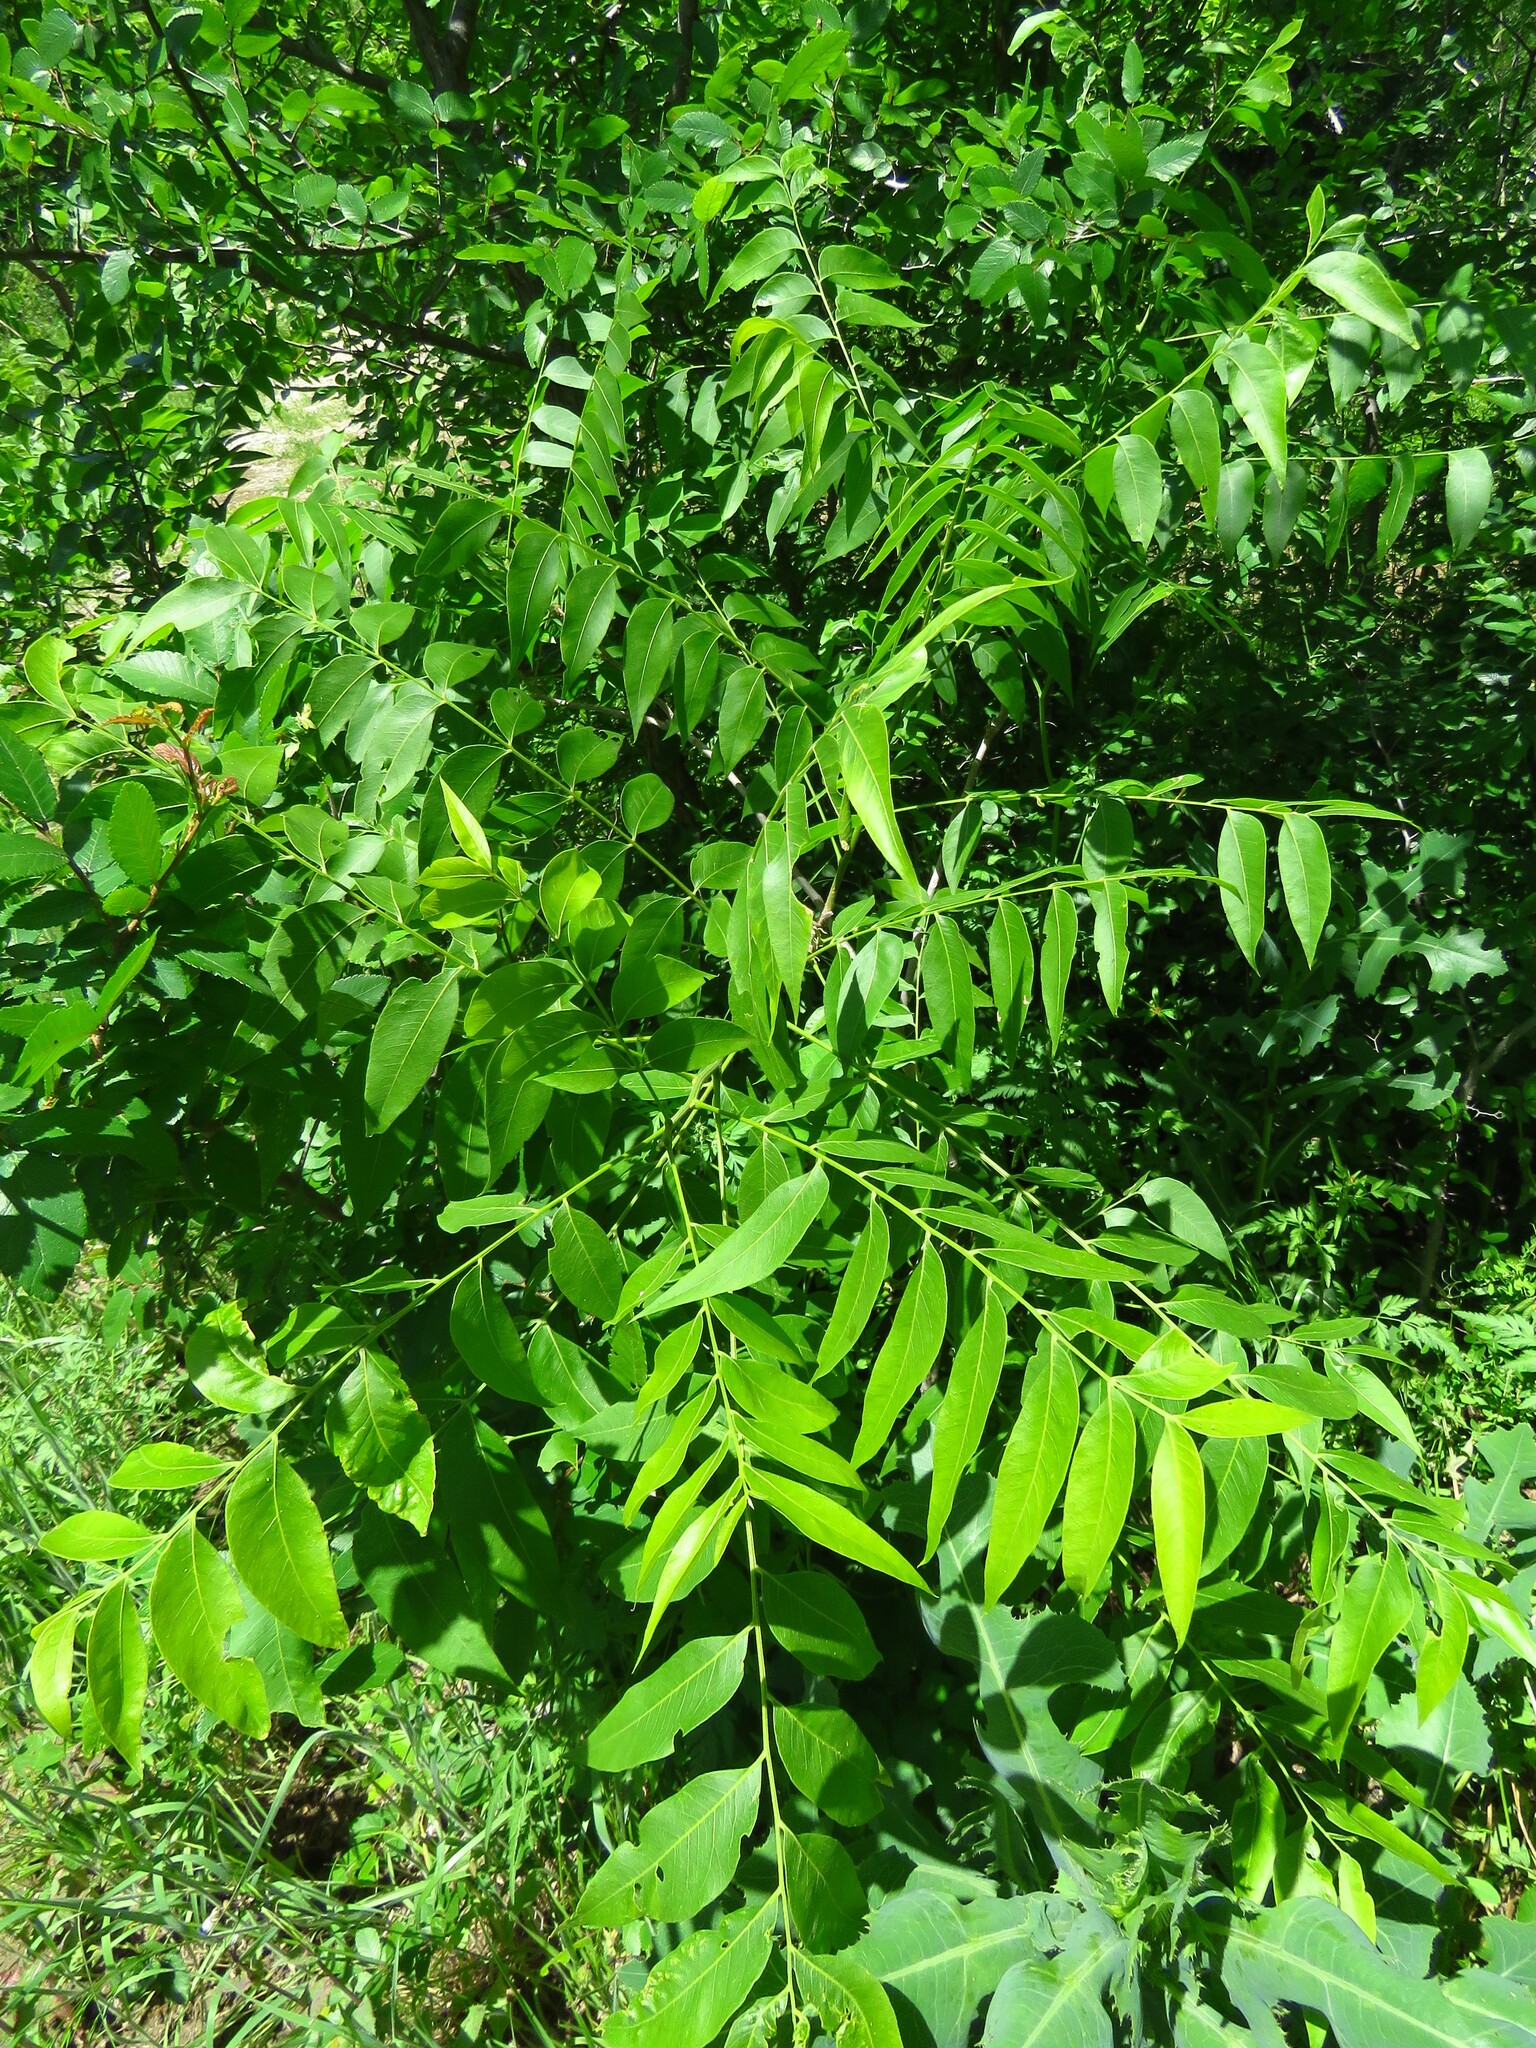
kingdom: Plantae
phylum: Tracheophyta
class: Magnoliopsida
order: Sapindales
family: Sapindaceae
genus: Sapindus
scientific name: Sapindus drummondii
